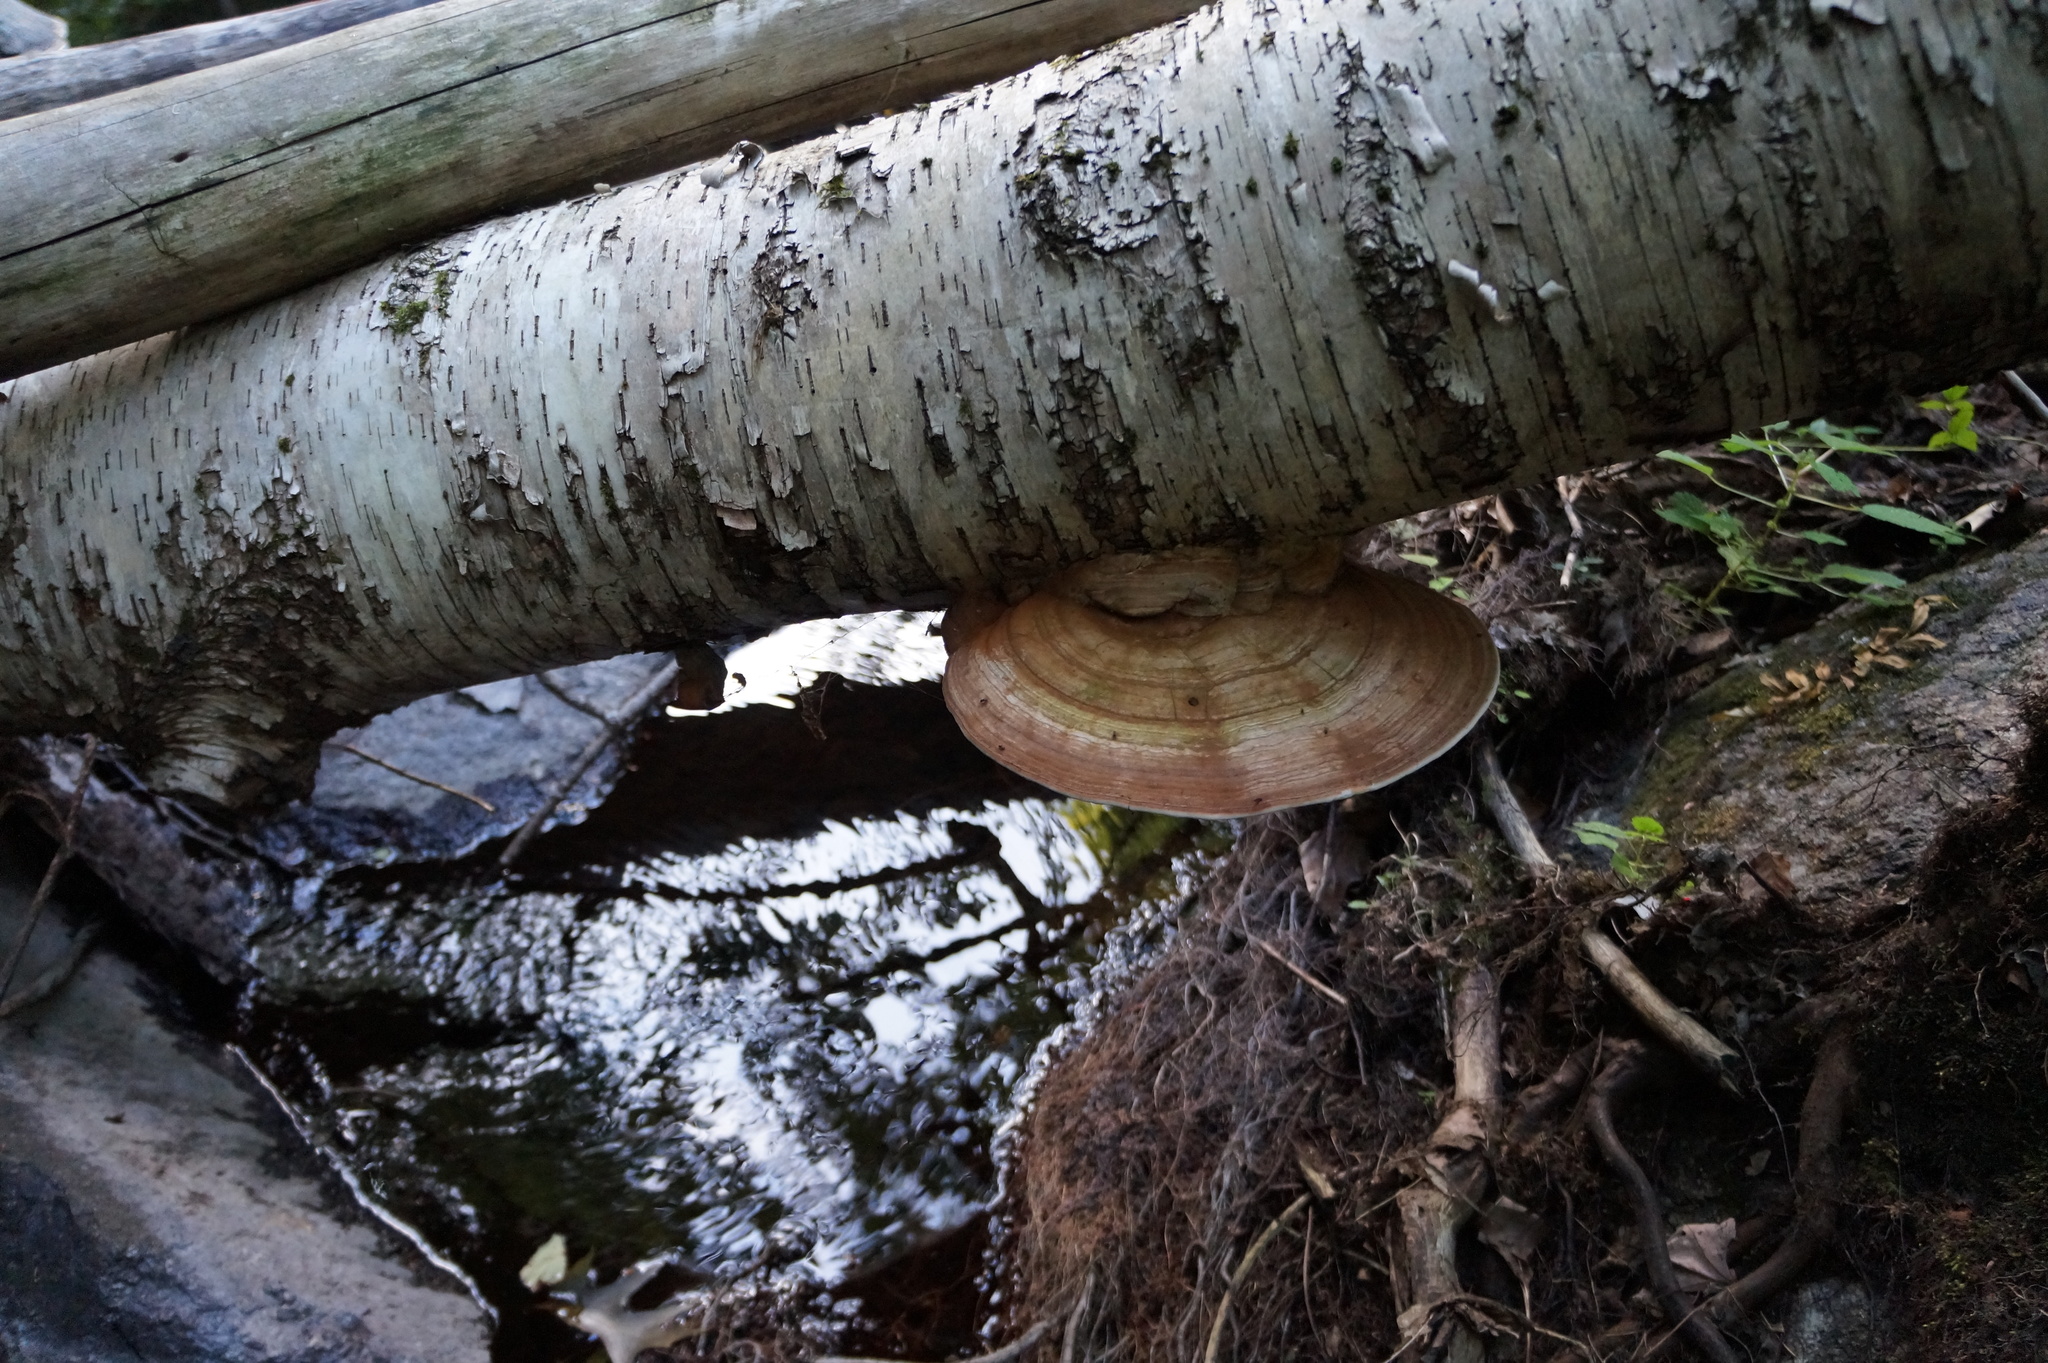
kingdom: Fungi
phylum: Basidiomycota
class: Agaricomycetes
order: Polyporales
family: Polyporaceae
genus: Ganoderma
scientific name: Ganoderma applanatum
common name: Artist's bracket
